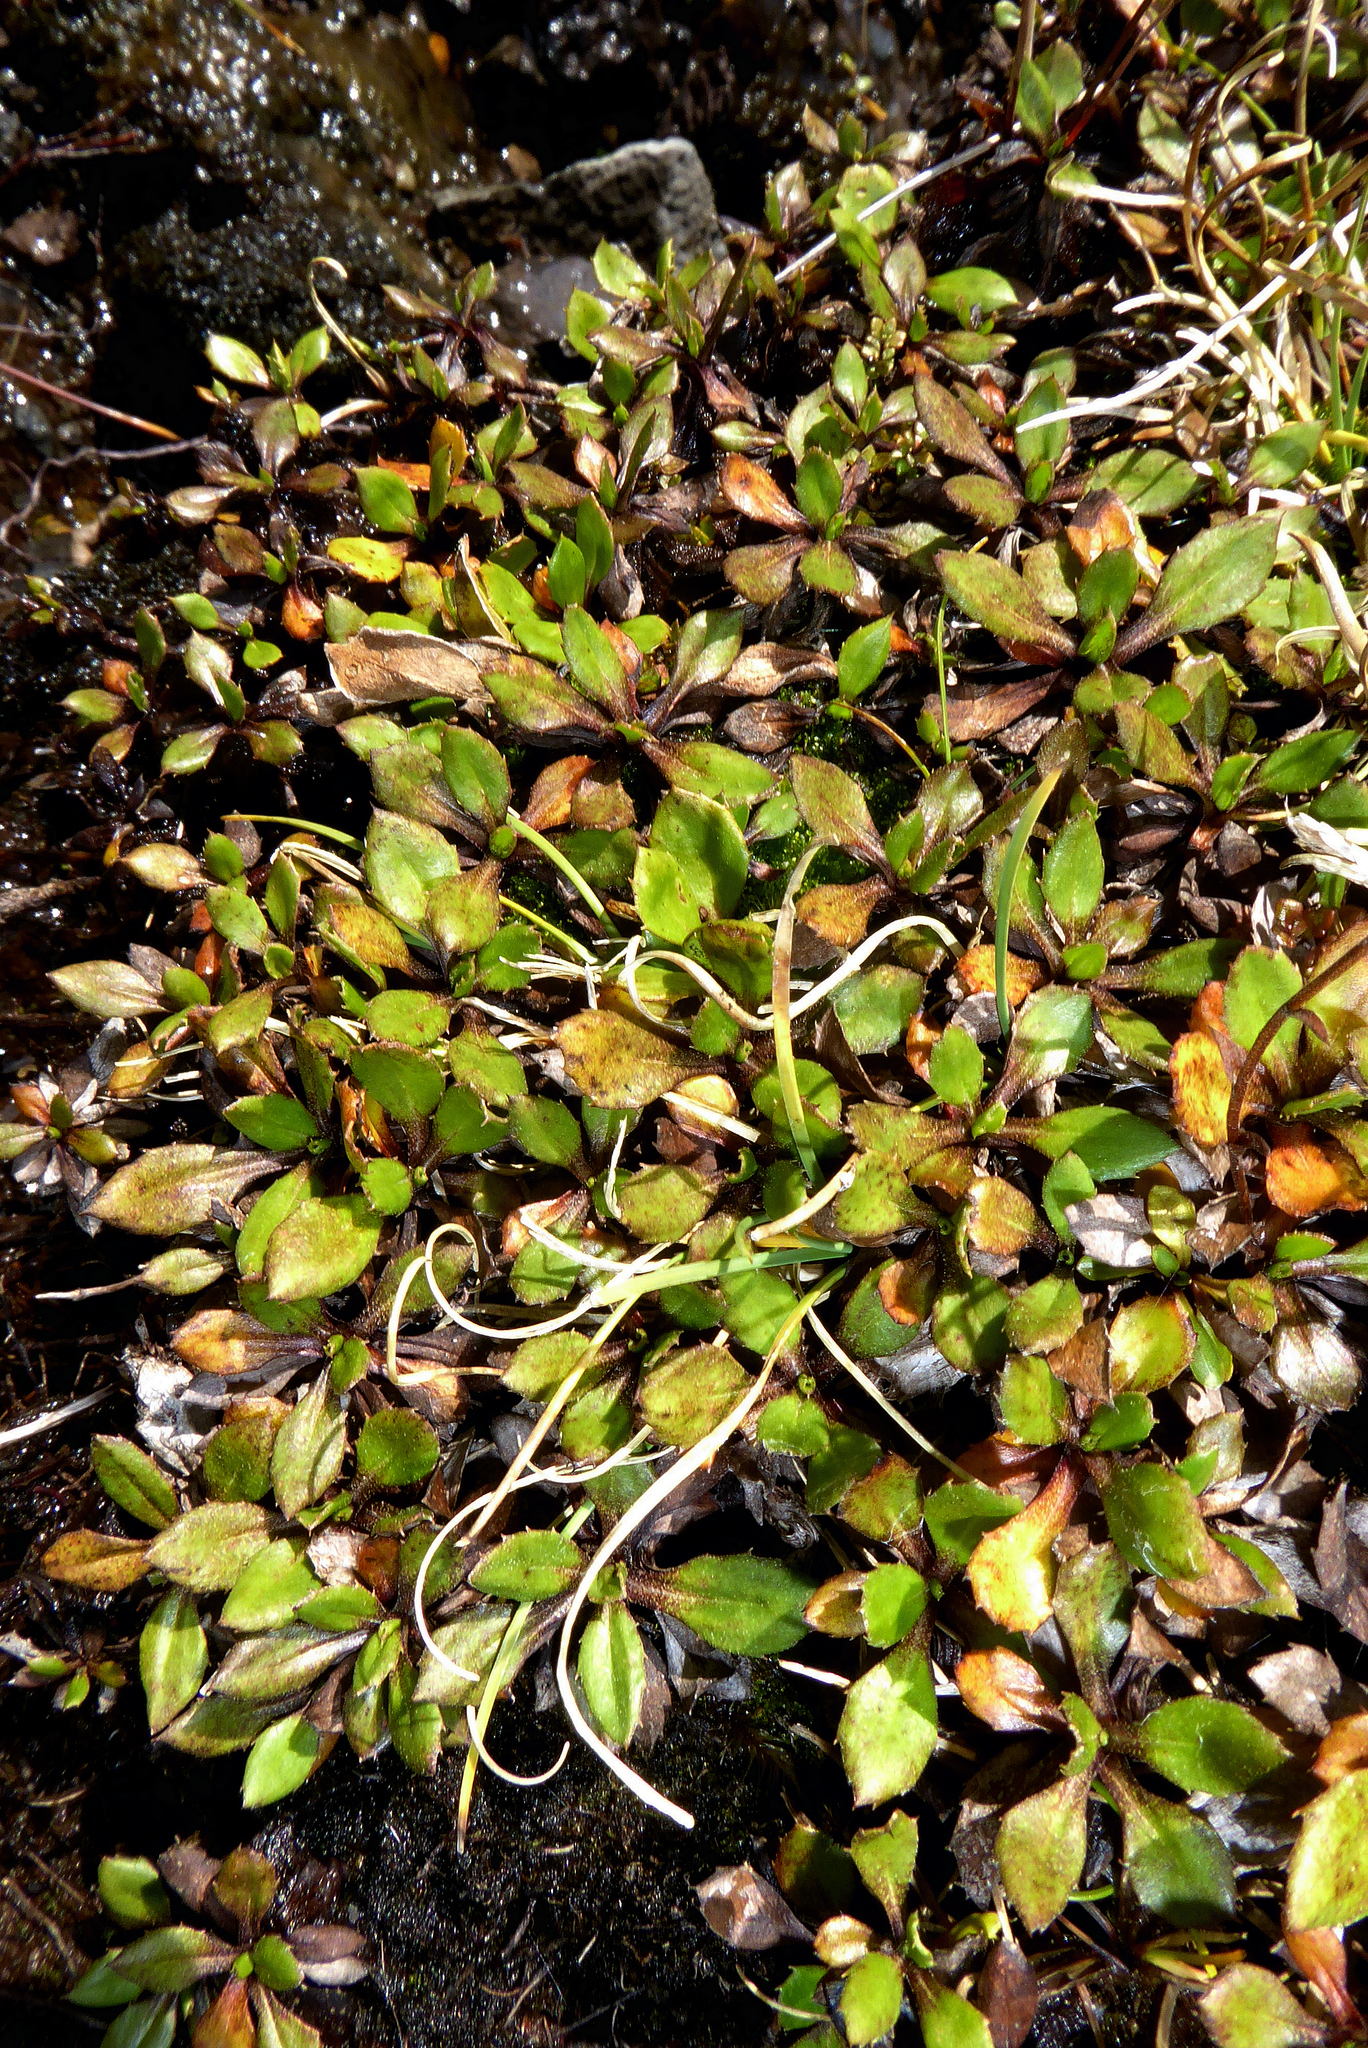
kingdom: Plantae
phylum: Tracheophyta
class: Magnoliopsida
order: Asterales
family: Asteraceae
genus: Celmisia
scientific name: Celmisia glandulosa
